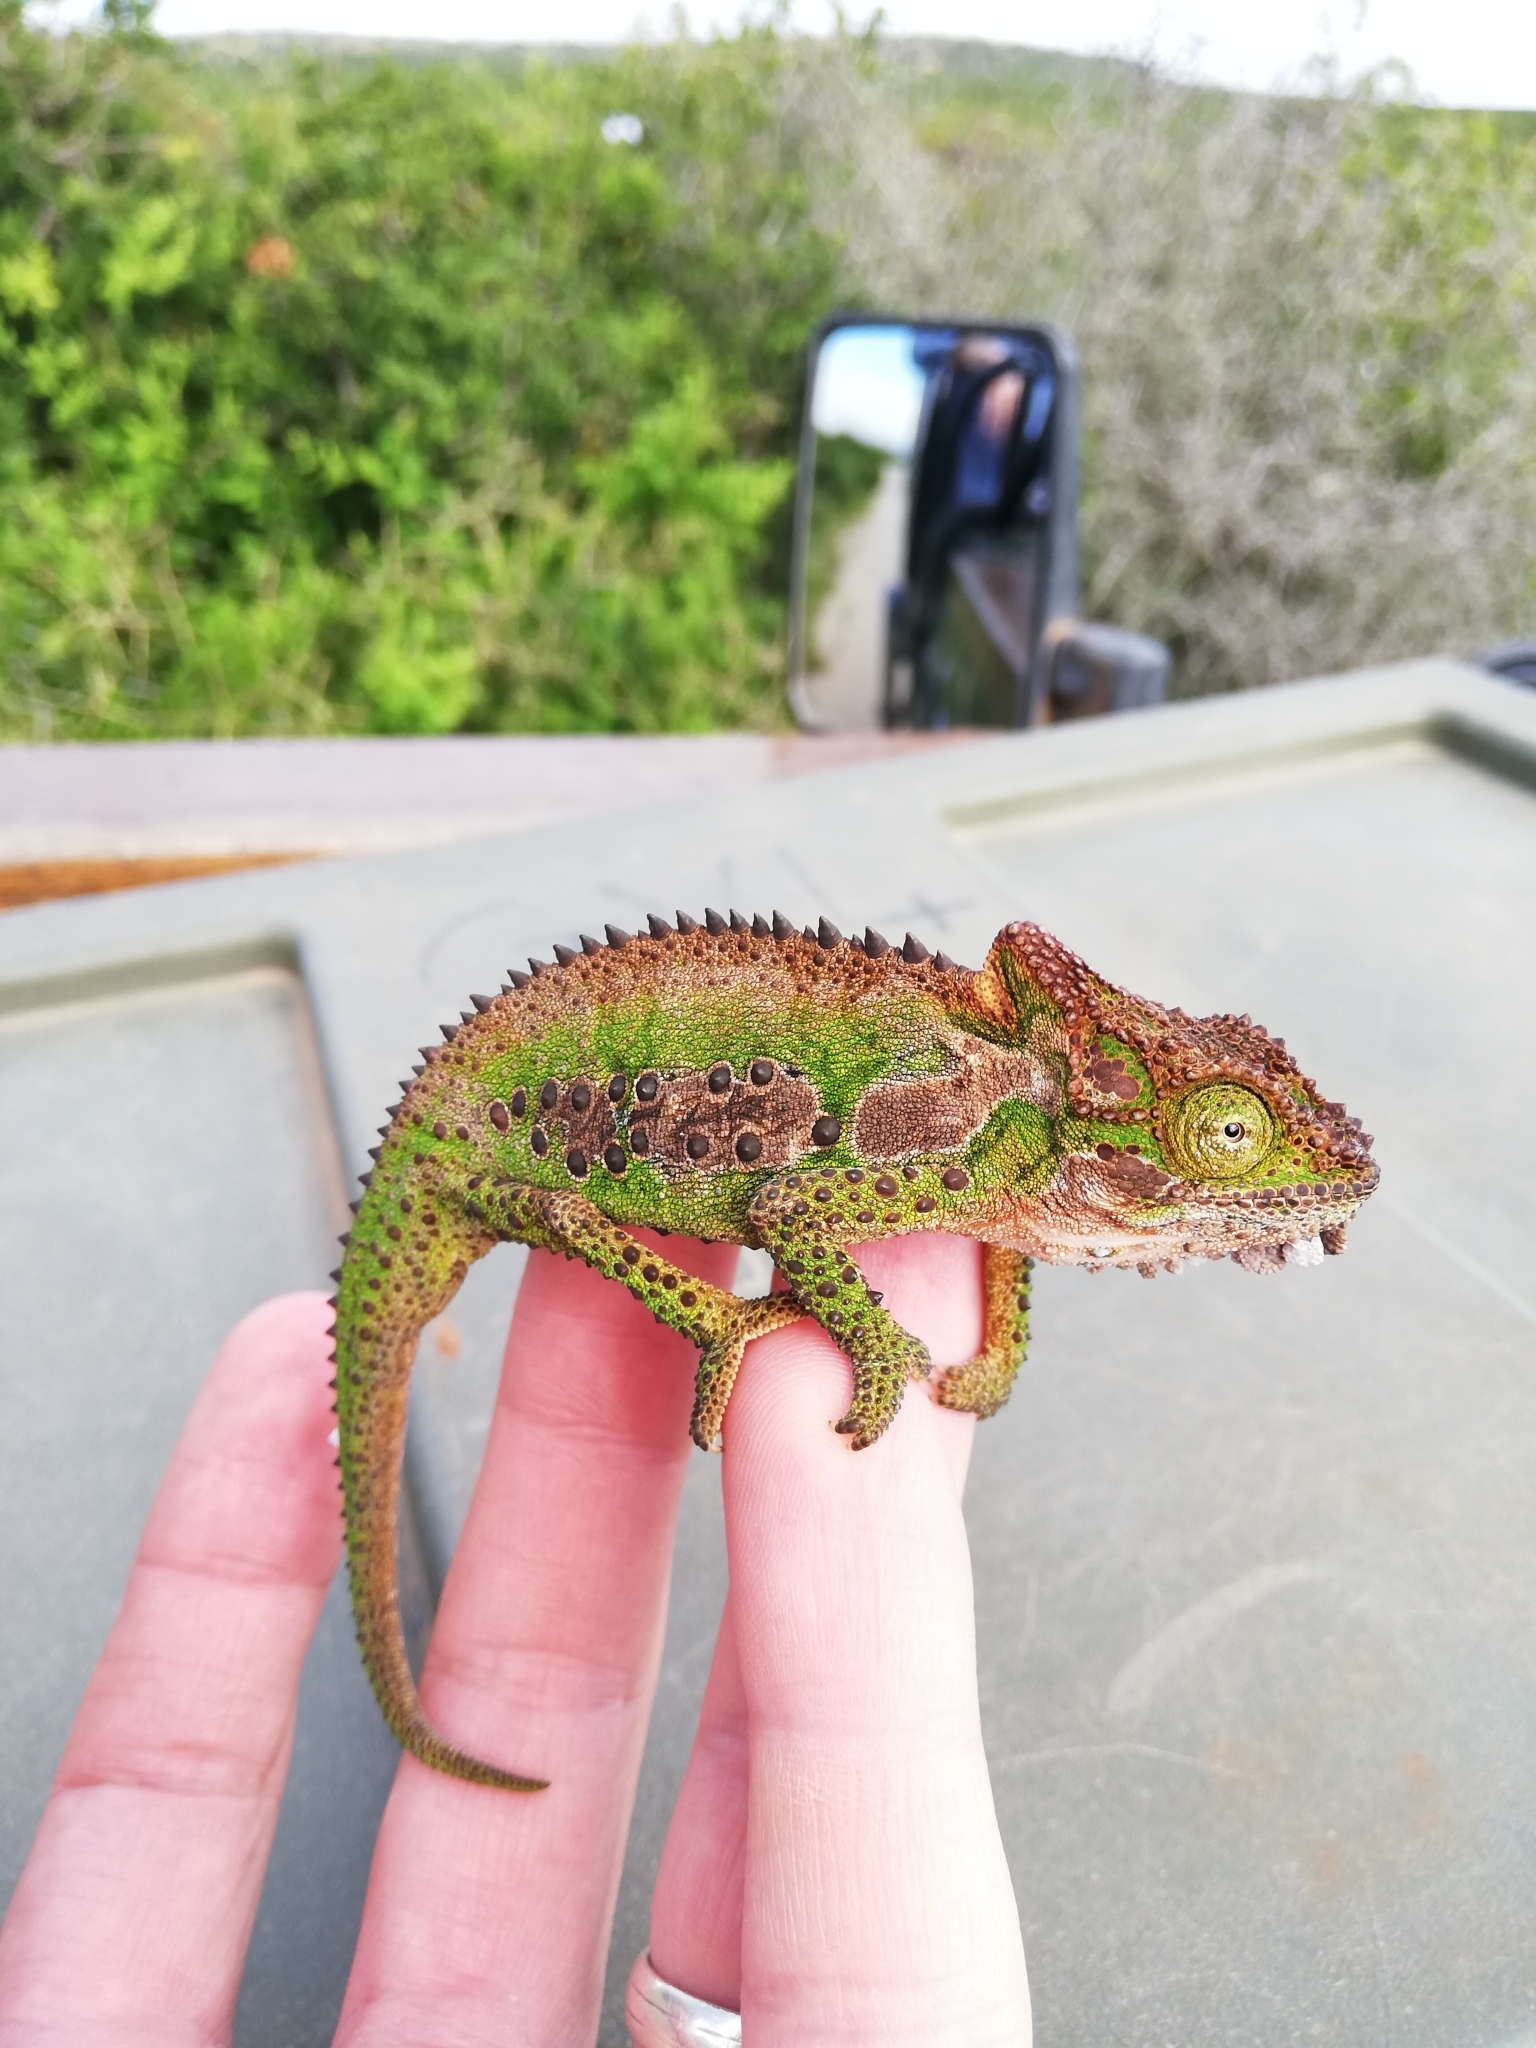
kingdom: Animalia
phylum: Chordata
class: Squamata
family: Chamaeleonidae
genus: Bradypodion
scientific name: Bradypodion ventrale
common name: Eastern cape dwarf chameleon
